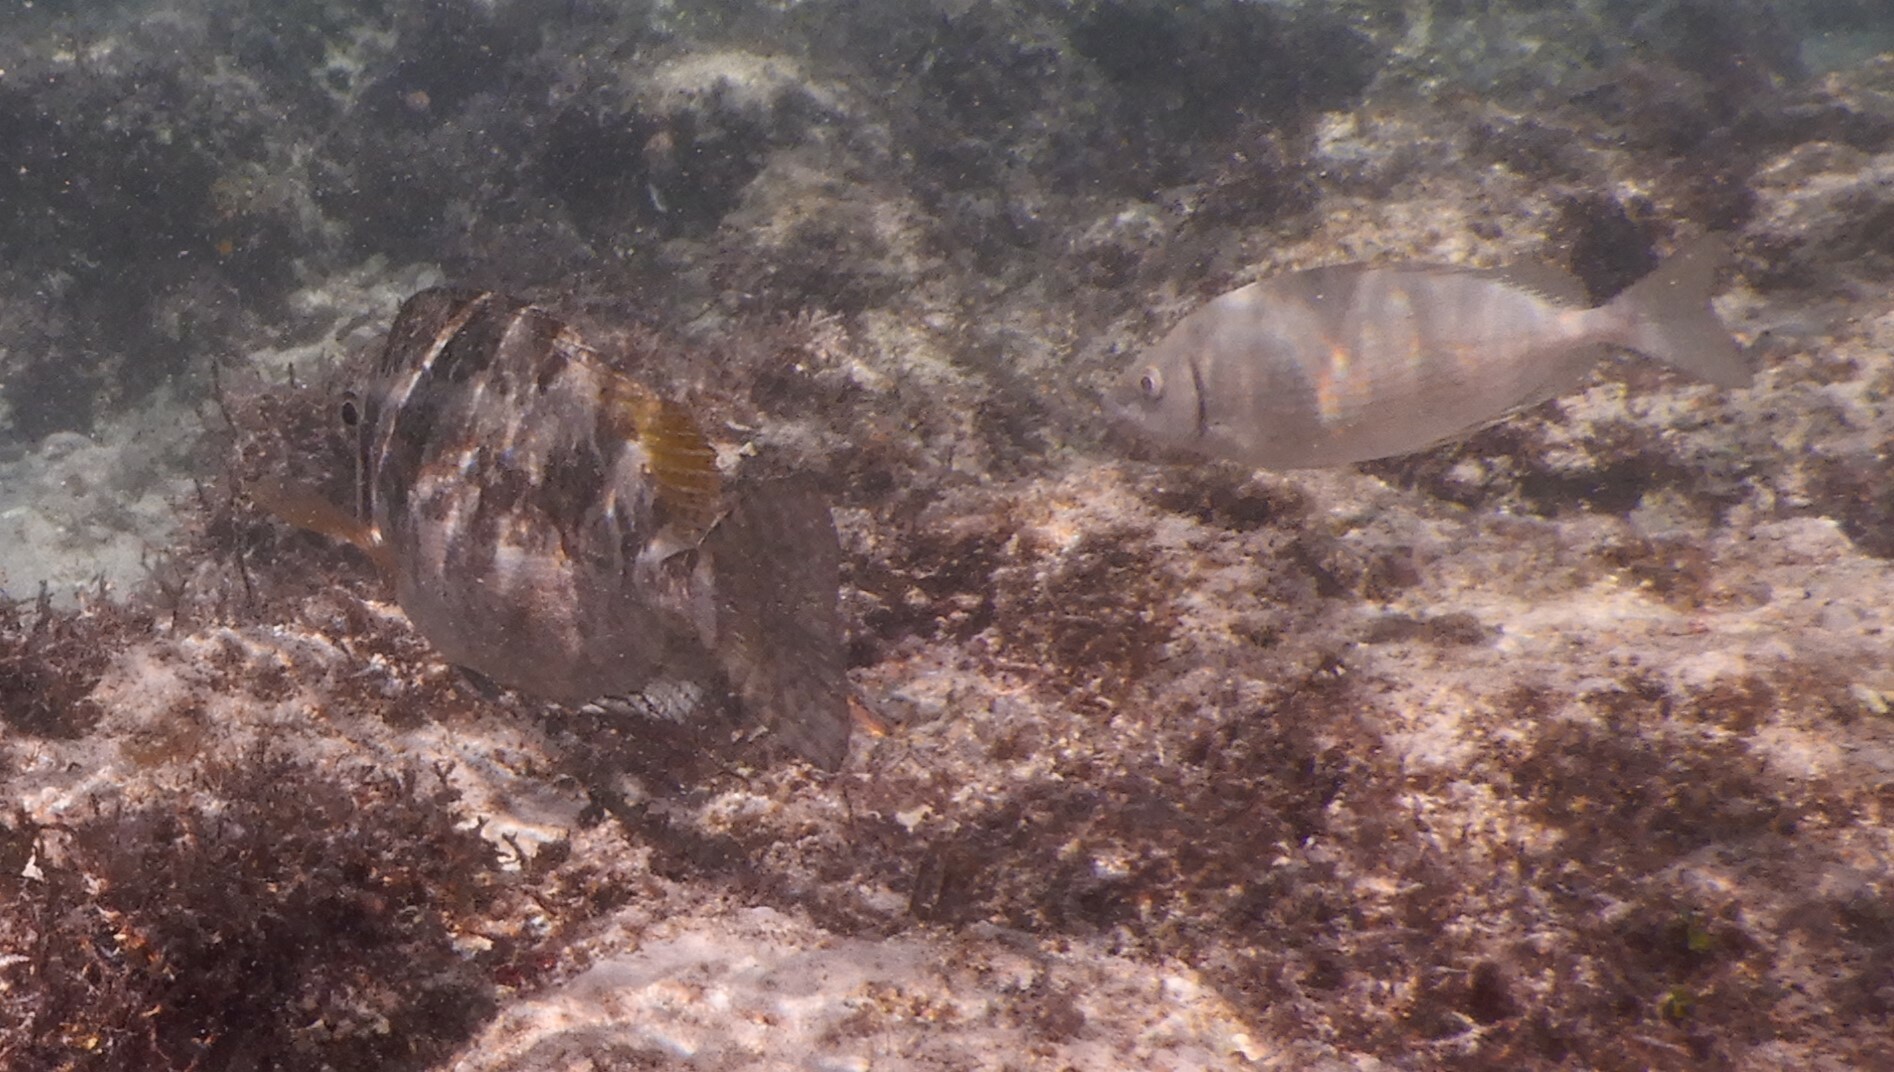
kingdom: Animalia
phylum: Chordata
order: Perciformes
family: Siganidae
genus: Siganus
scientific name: Siganus rivulatus
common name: Marbled spinefoot
